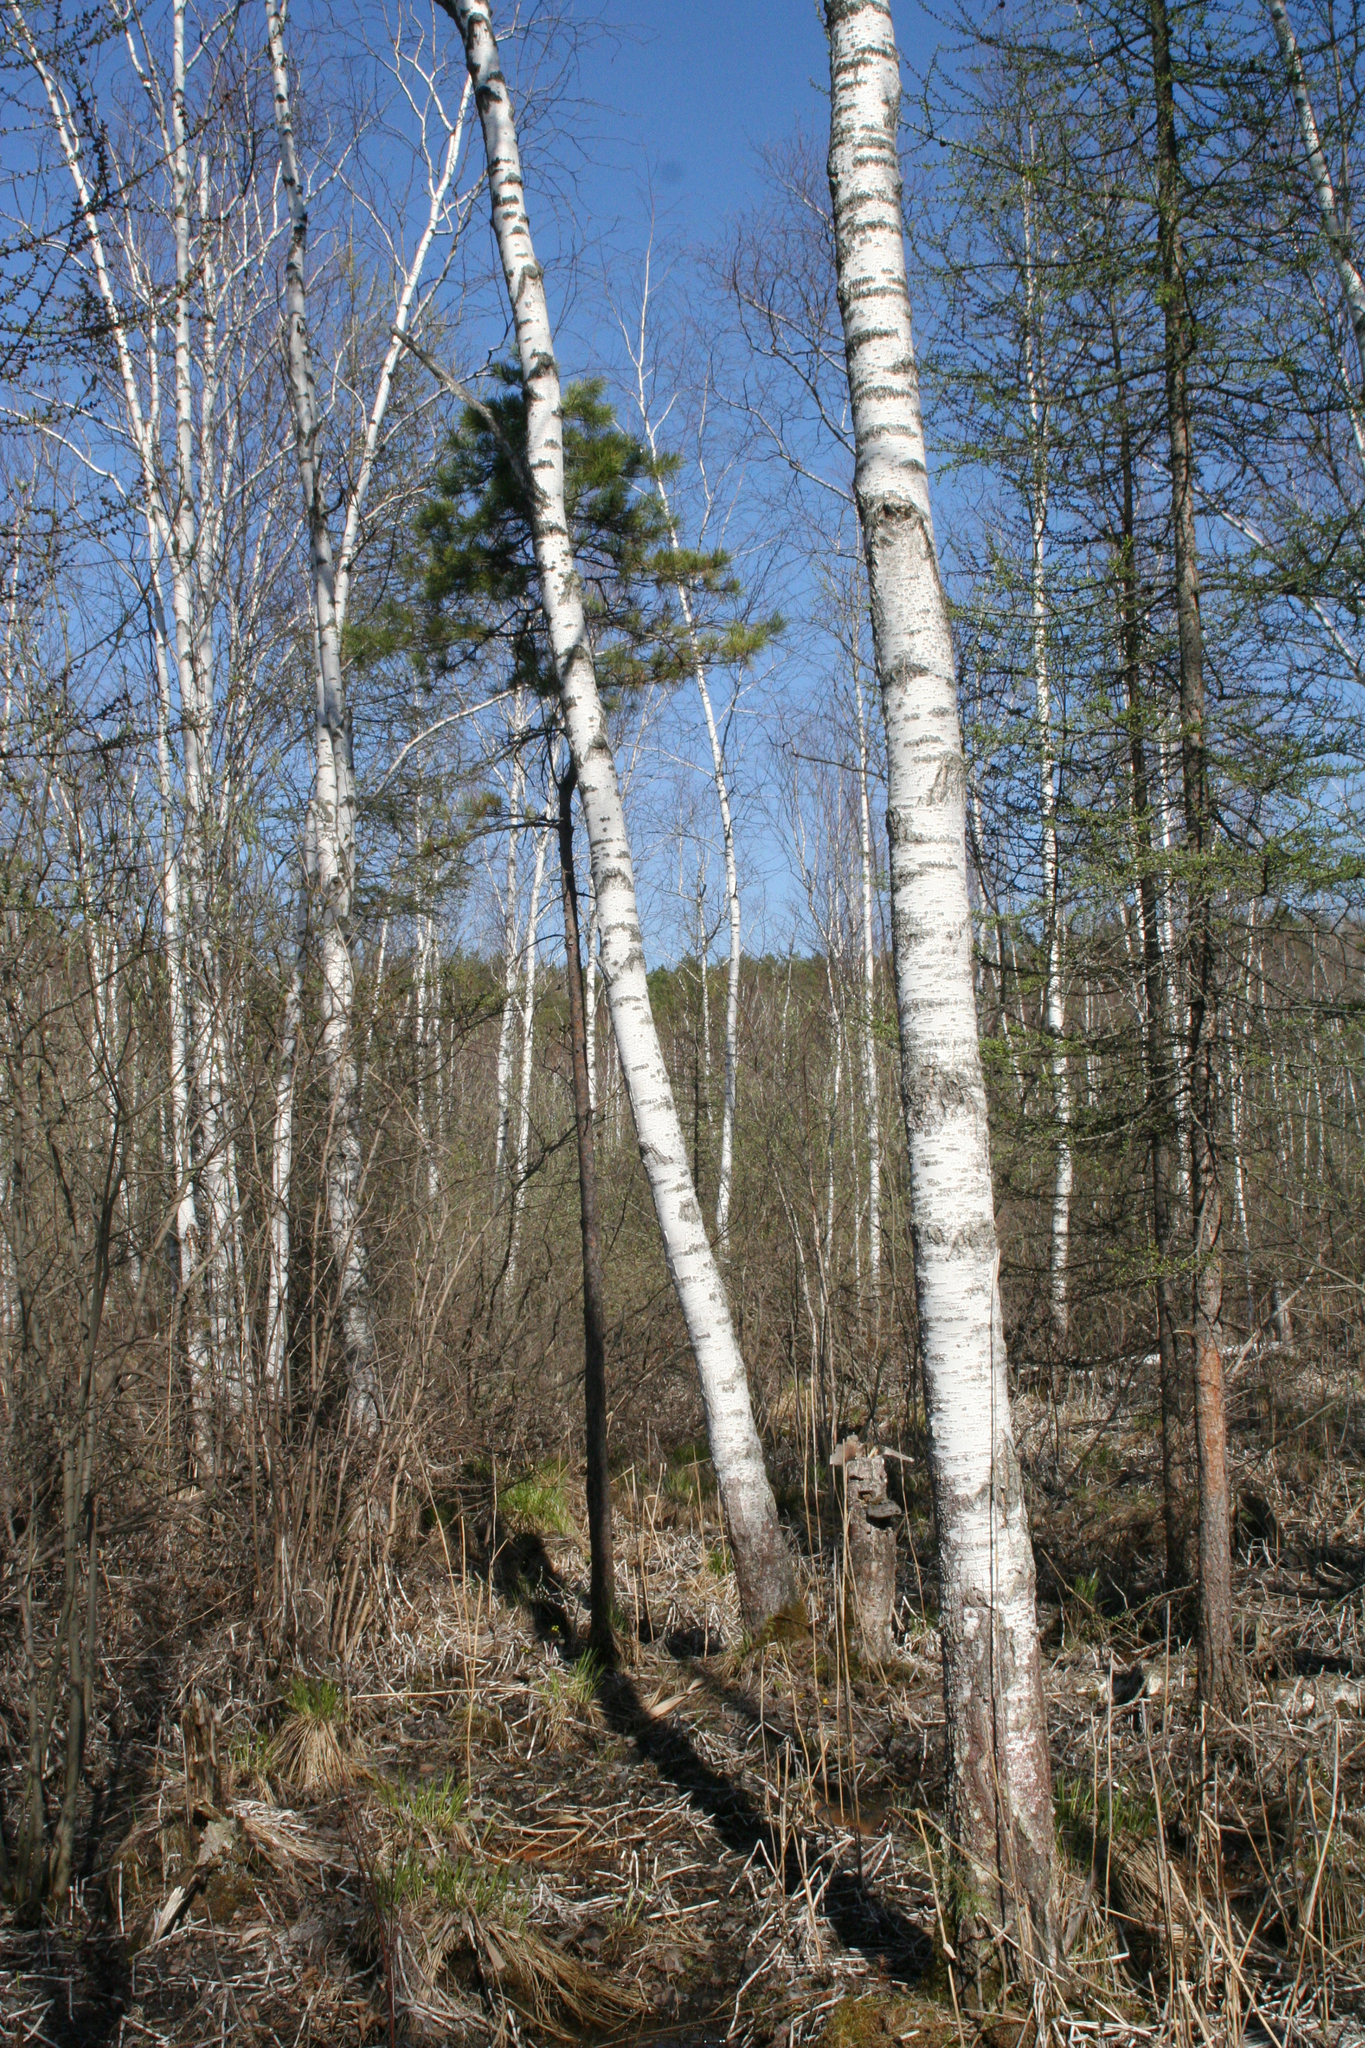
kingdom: Plantae
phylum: Tracheophyta
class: Magnoliopsida
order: Fagales
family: Betulaceae
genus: Betula
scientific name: Betula pubescens
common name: Downy birch
